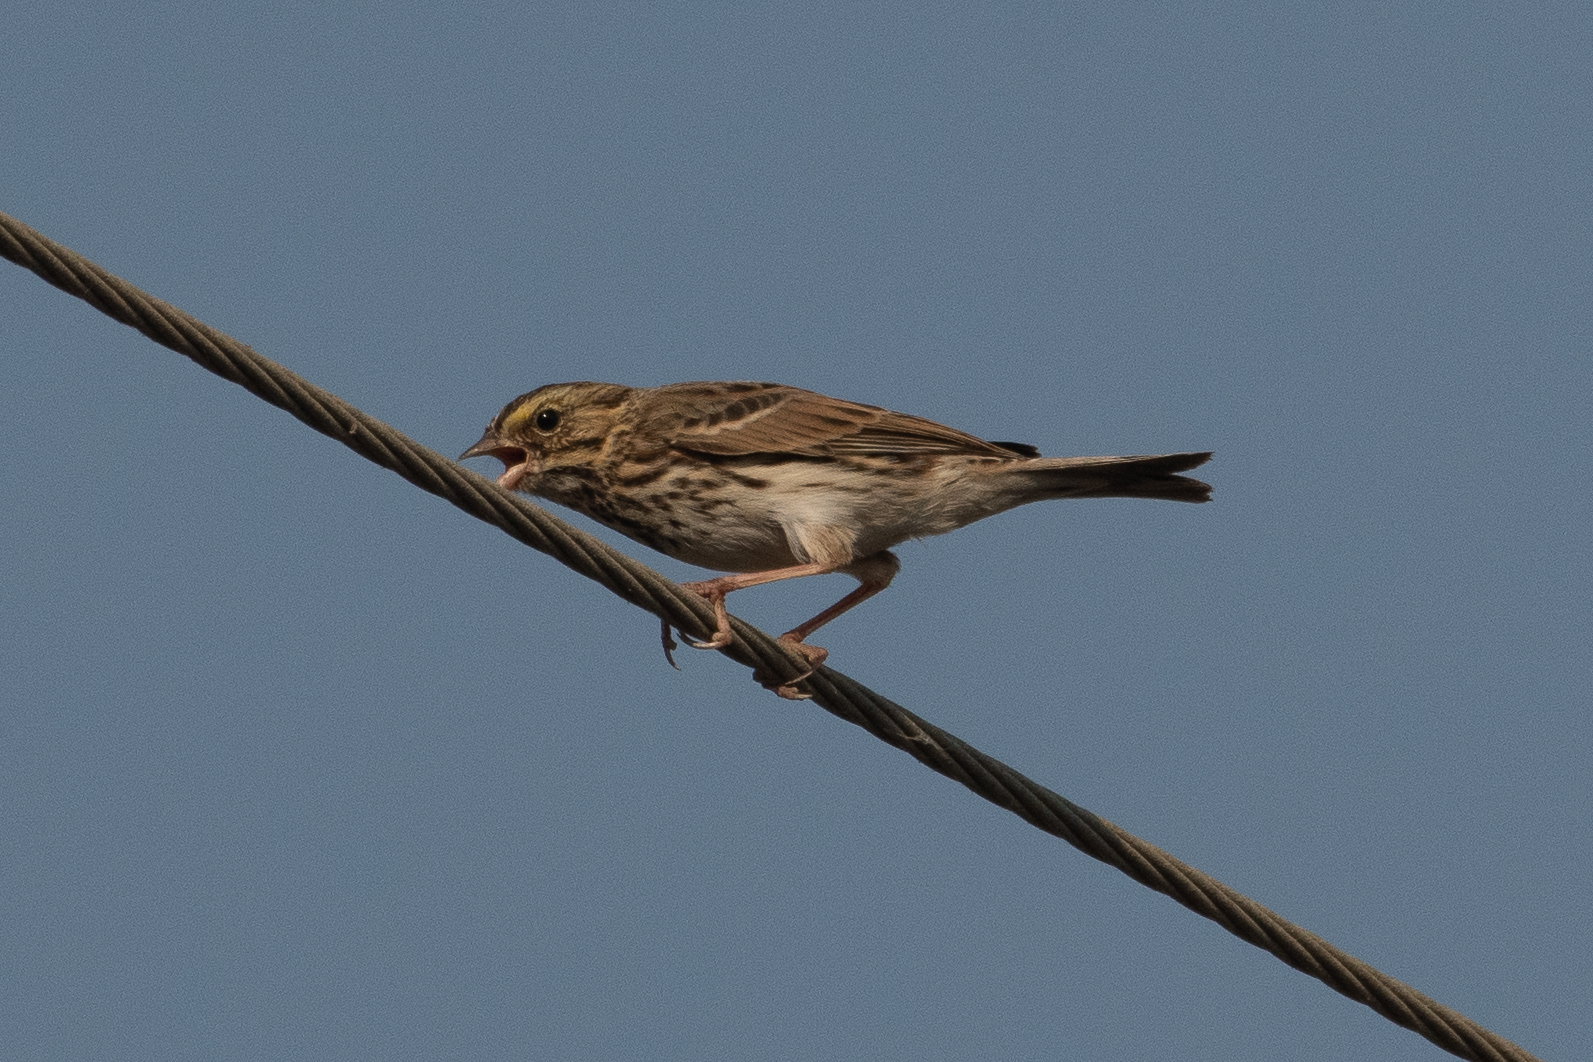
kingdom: Animalia
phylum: Chordata
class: Aves
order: Passeriformes
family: Passerellidae
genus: Passerculus
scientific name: Passerculus sandwichensis
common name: Savannah sparrow
